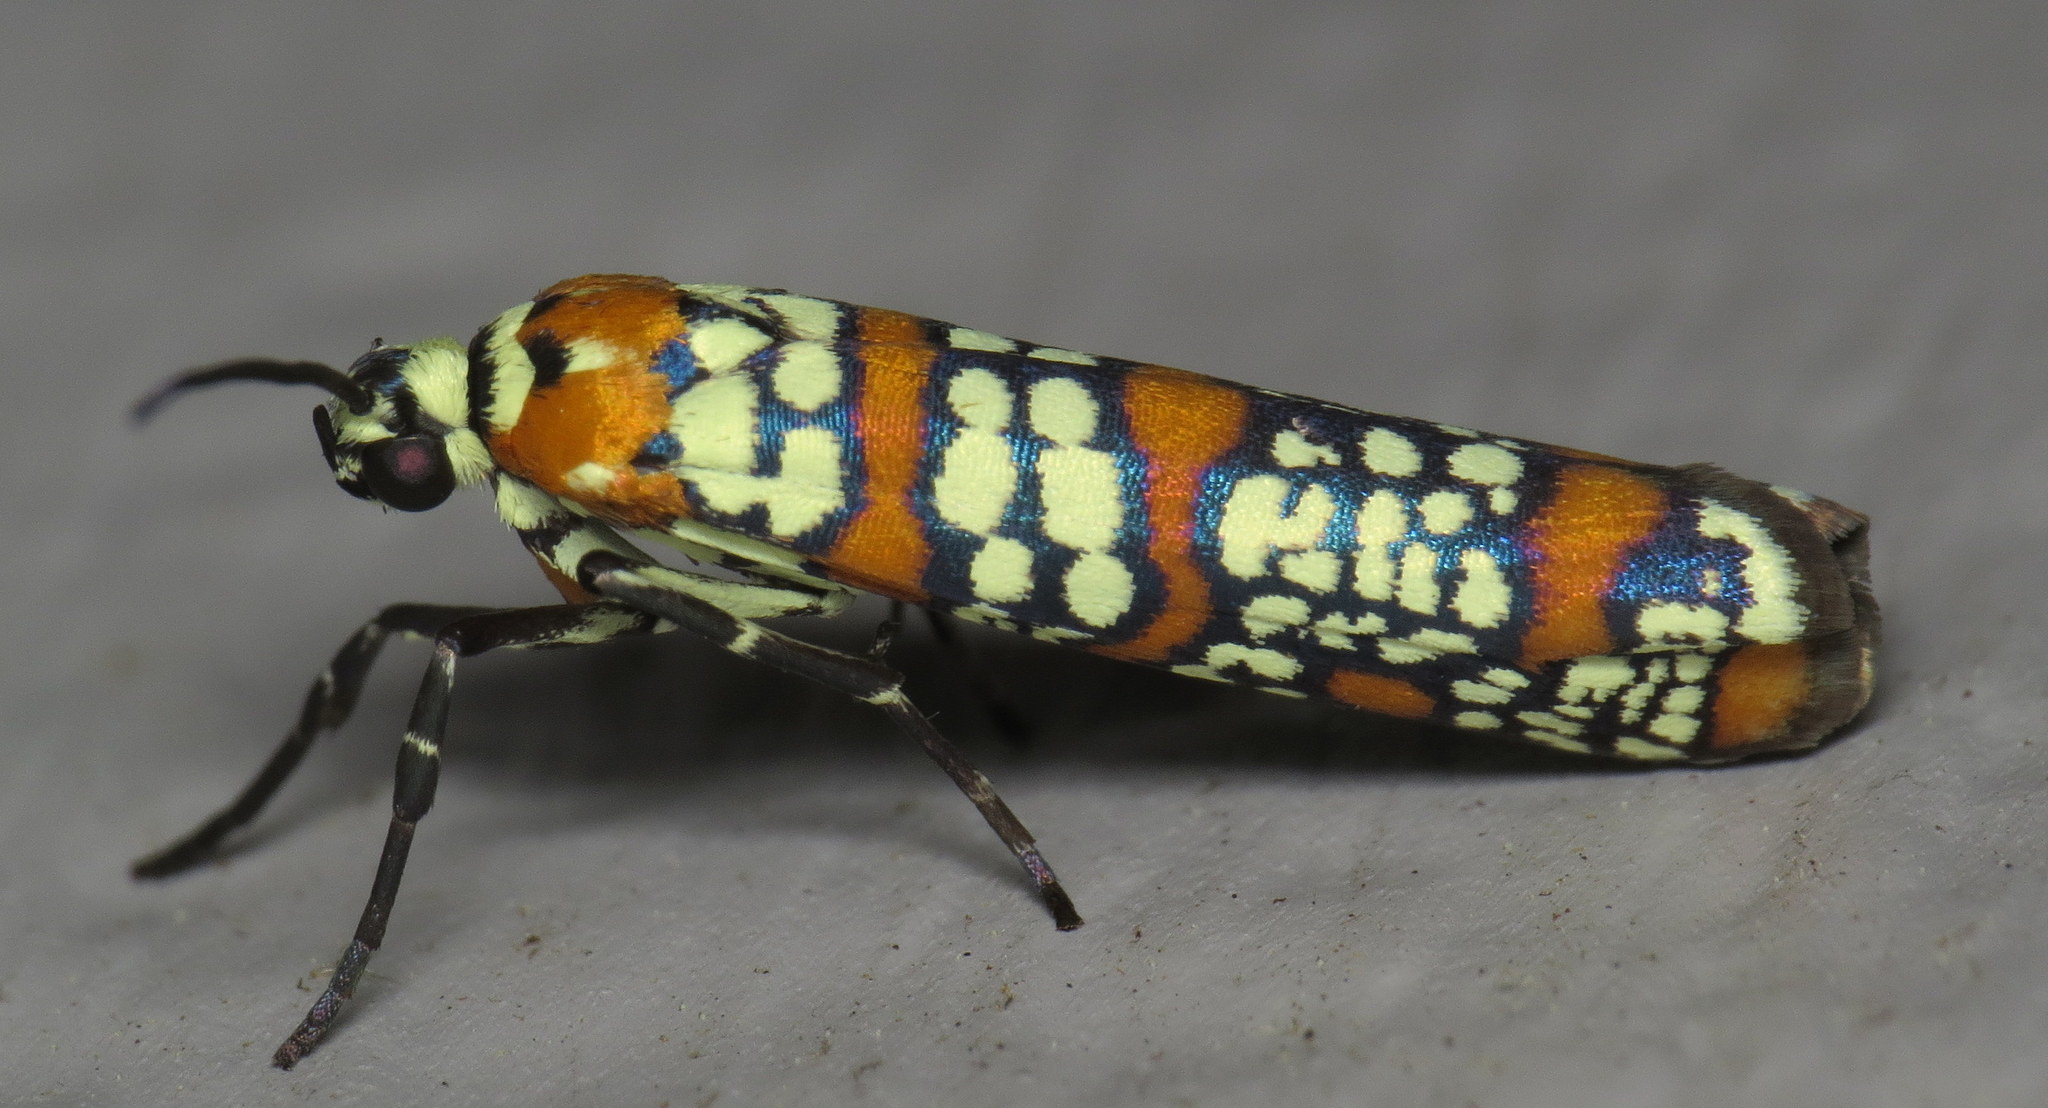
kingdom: Animalia
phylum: Arthropoda
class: Insecta
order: Lepidoptera
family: Attevidae
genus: Atteva
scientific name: Atteva punctella
